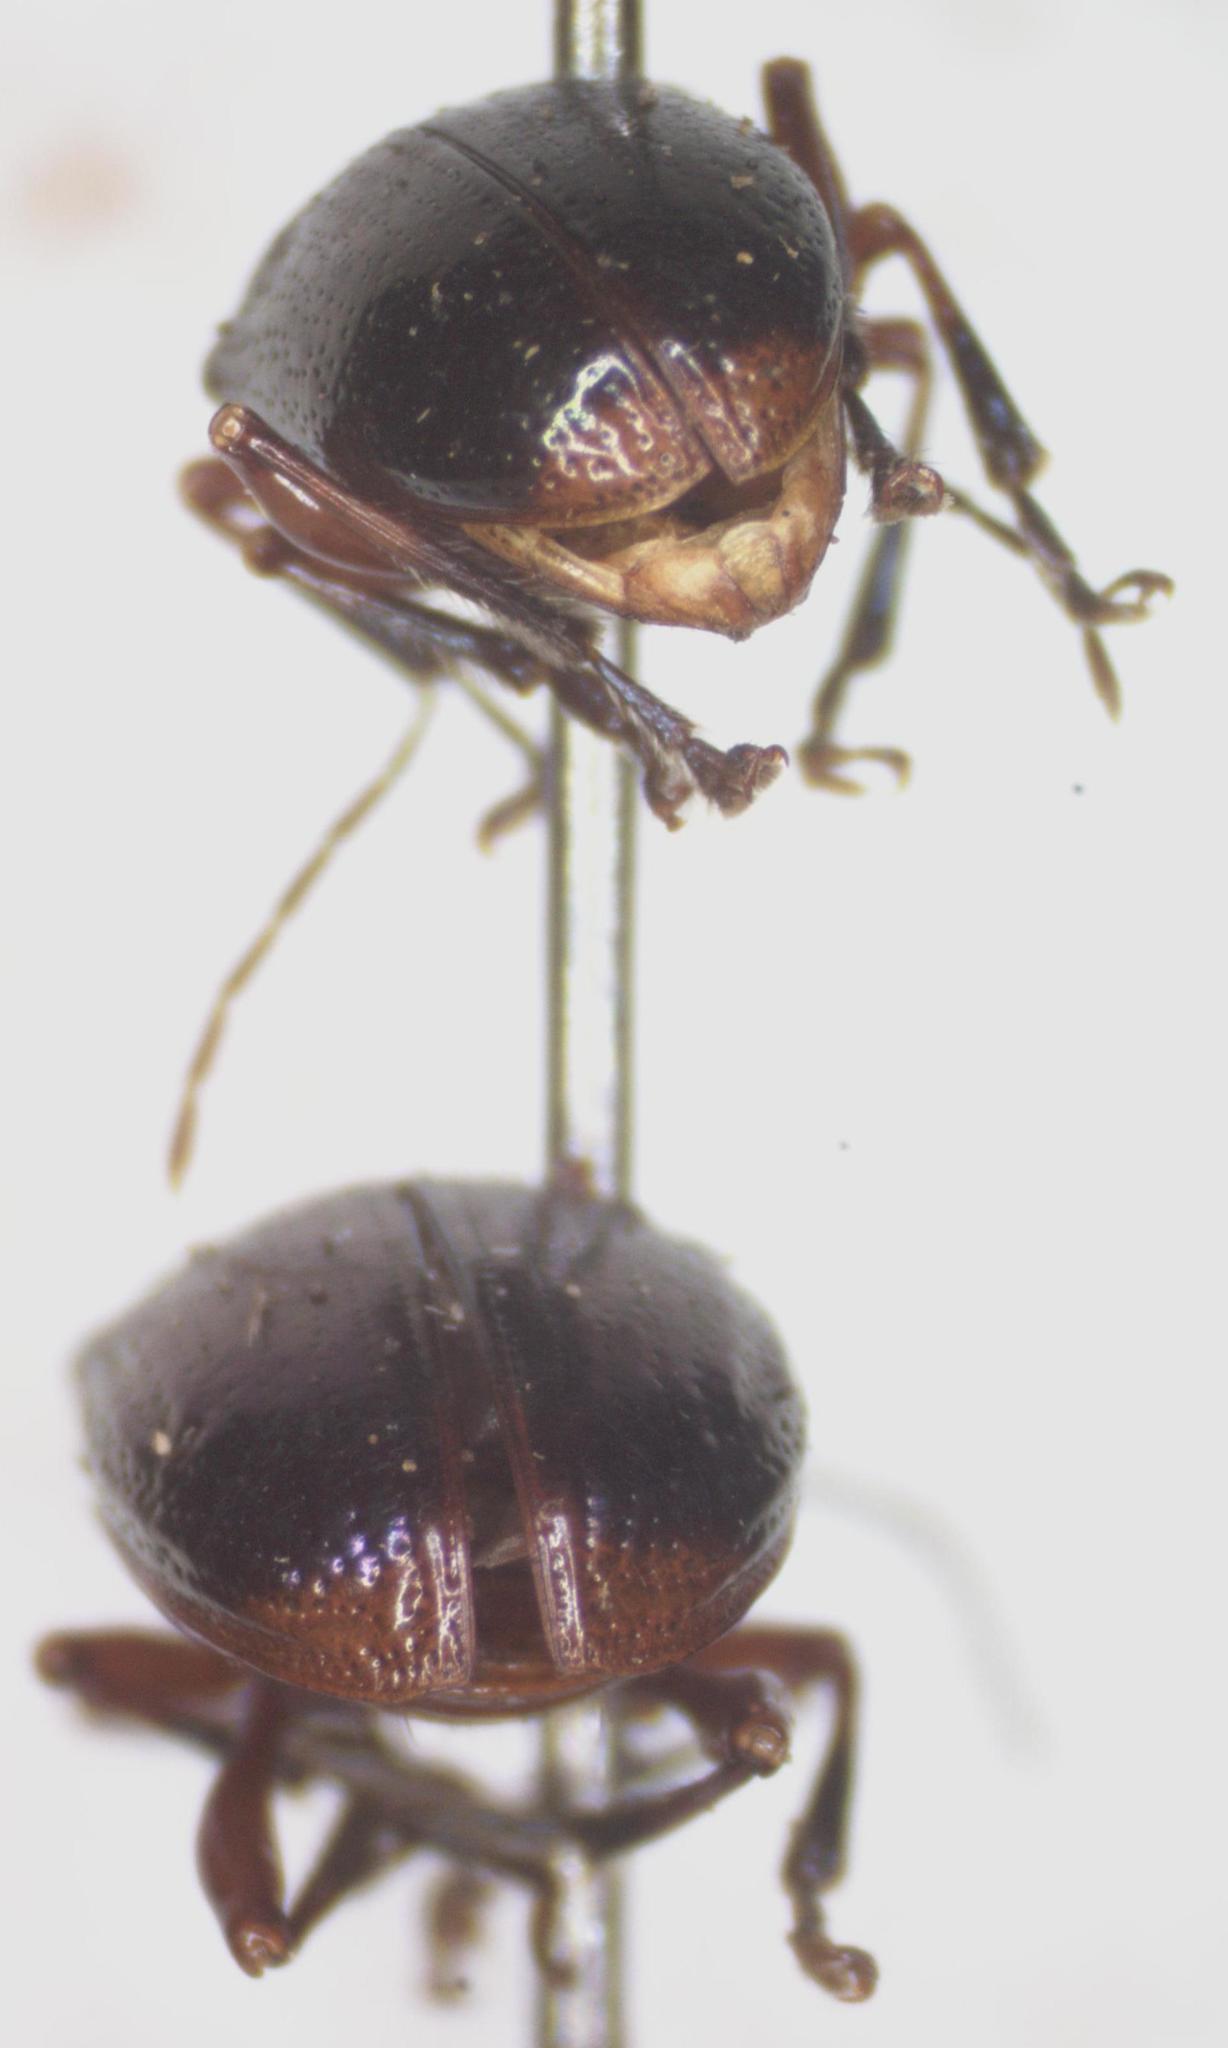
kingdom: Animalia
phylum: Arthropoda
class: Insecta
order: Coleoptera
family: Chrysomelidae
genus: Chalcophana
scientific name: Chalcophana
